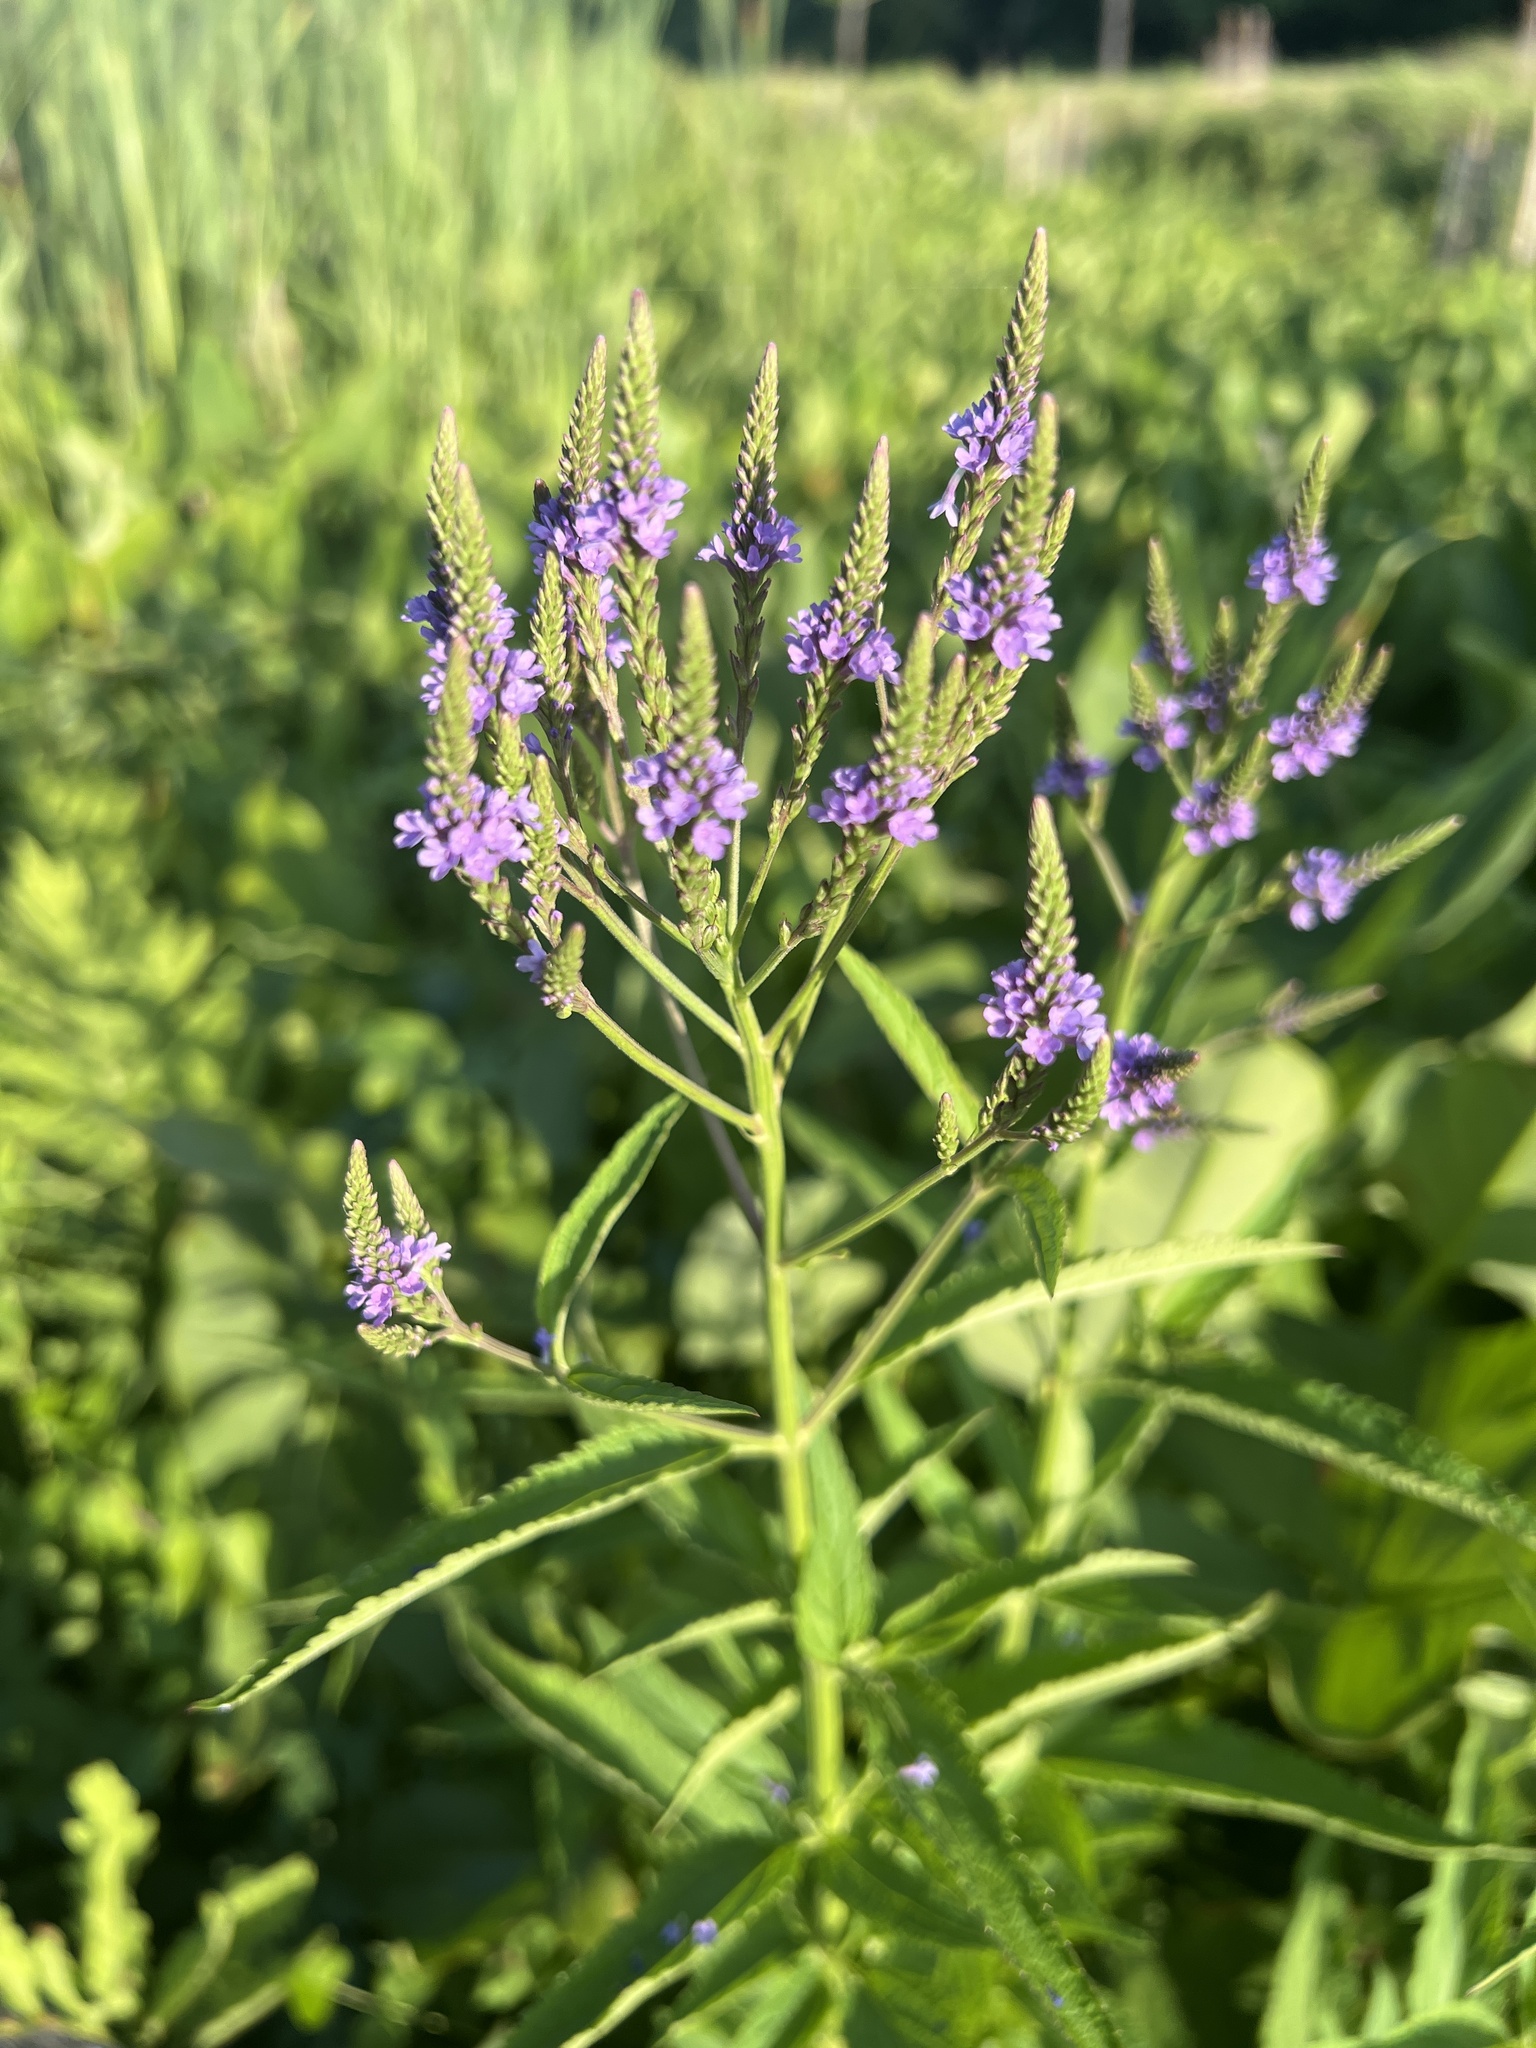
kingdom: Plantae
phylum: Tracheophyta
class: Magnoliopsida
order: Lamiales
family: Verbenaceae
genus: Verbena
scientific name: Verbena hastata
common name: American blue vervain
